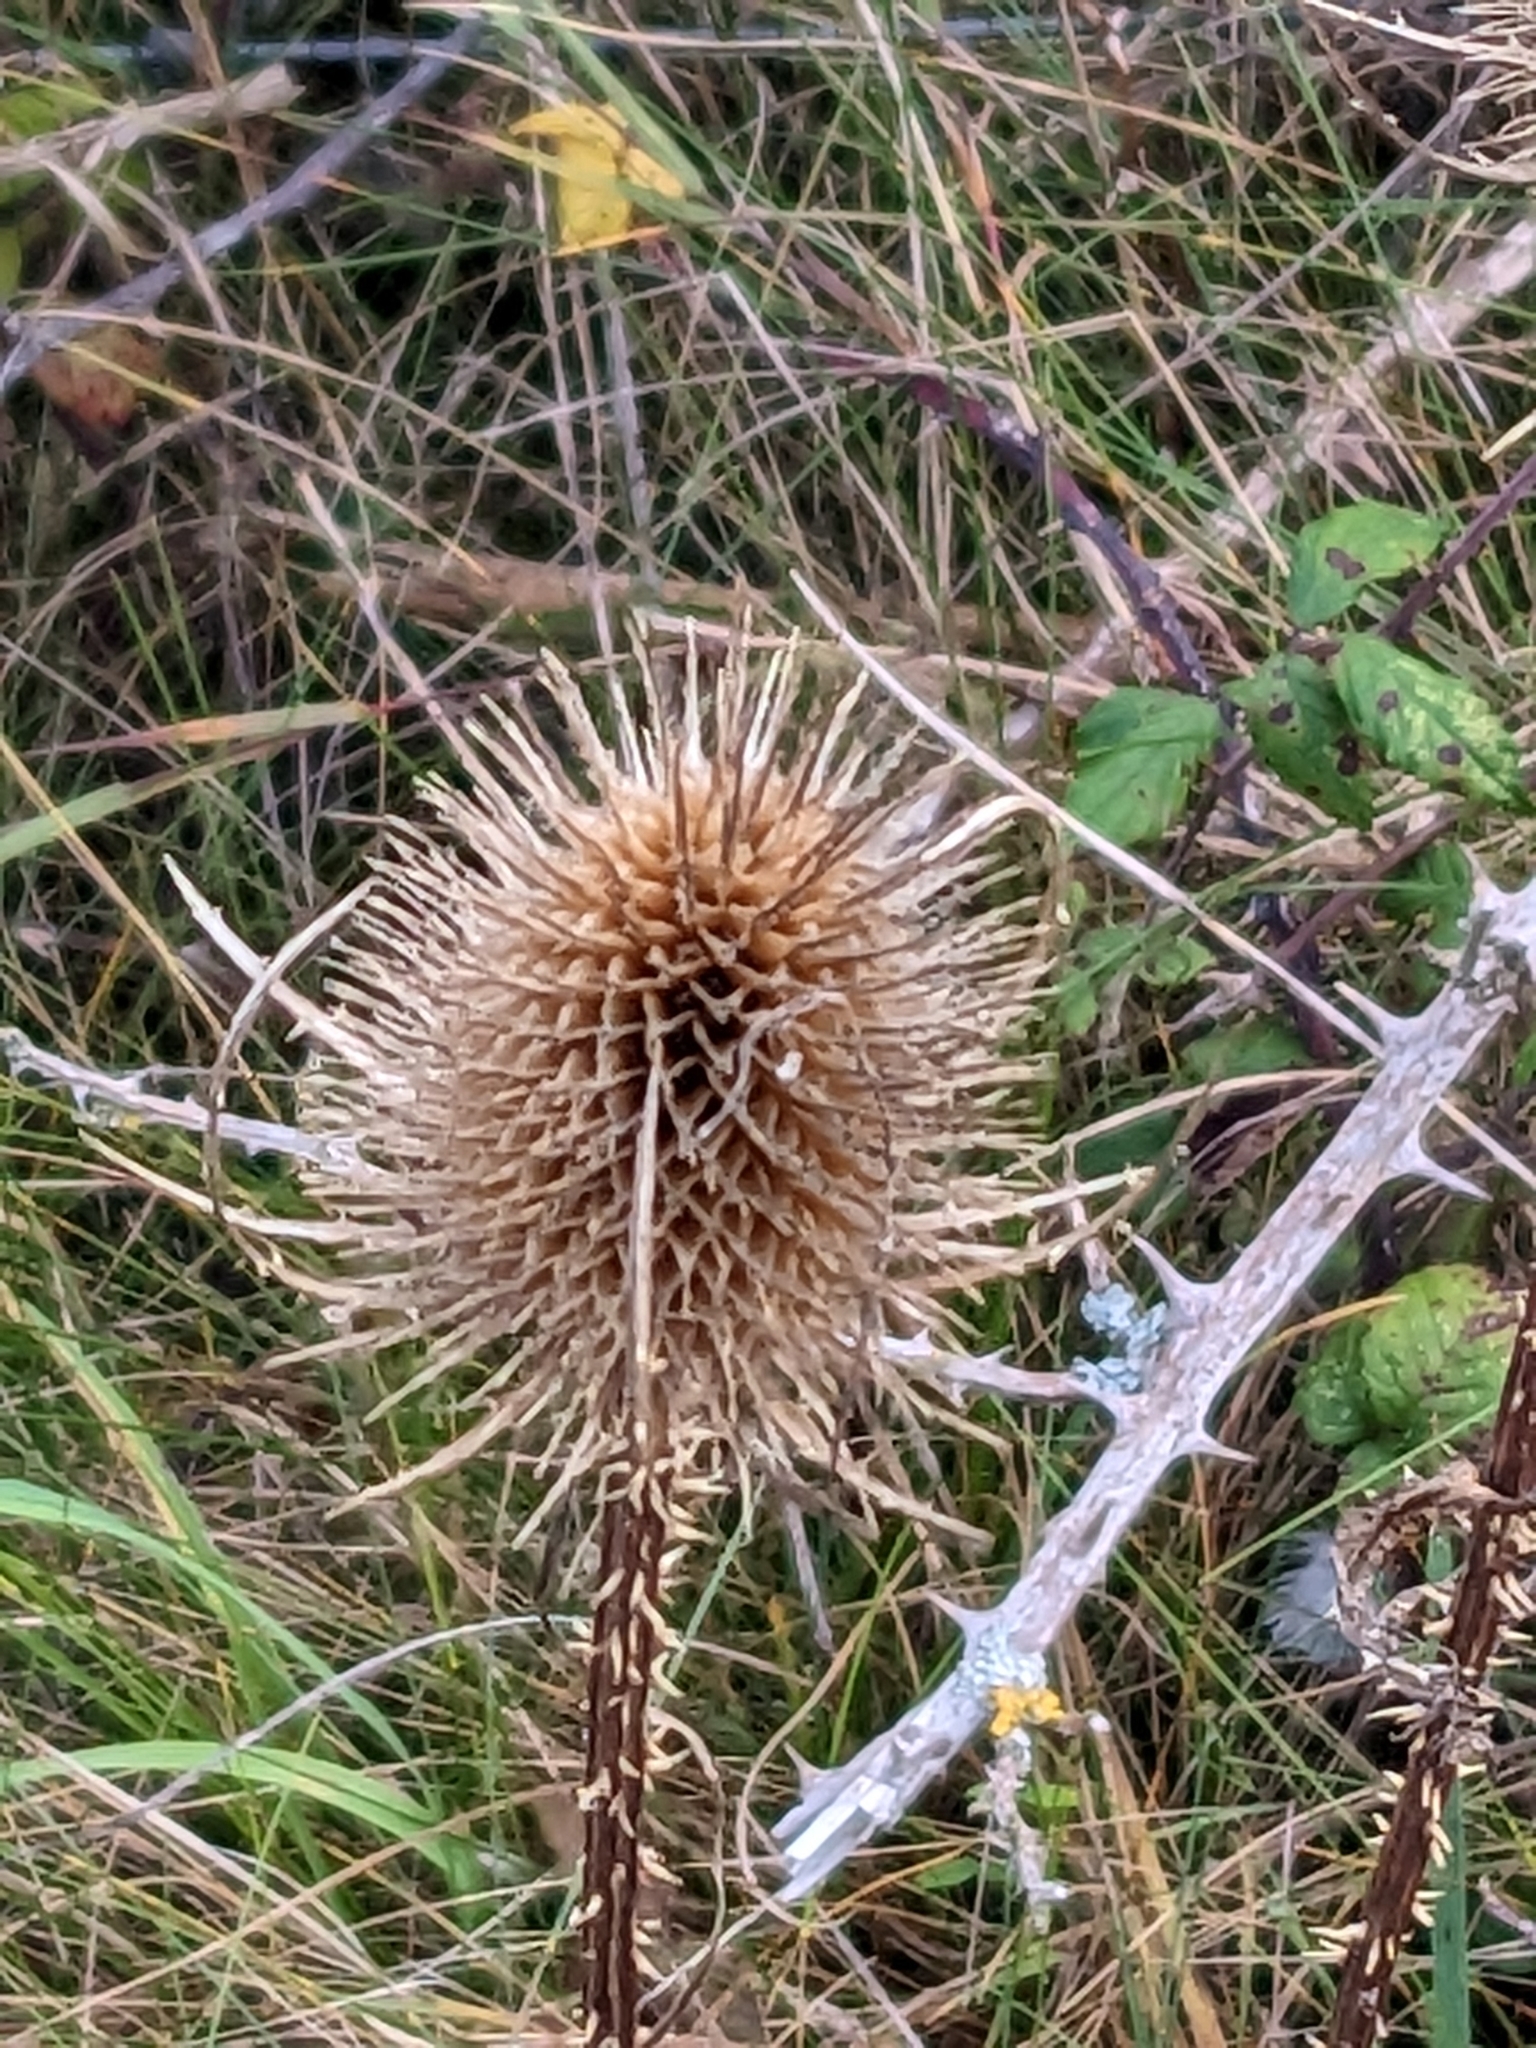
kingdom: Plantae
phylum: Tracheophyta
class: Magnoliopsida
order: Dipsacales
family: Caprifoliaceae
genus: Dipsacus
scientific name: Dipsacus fullonum
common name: Teasel
